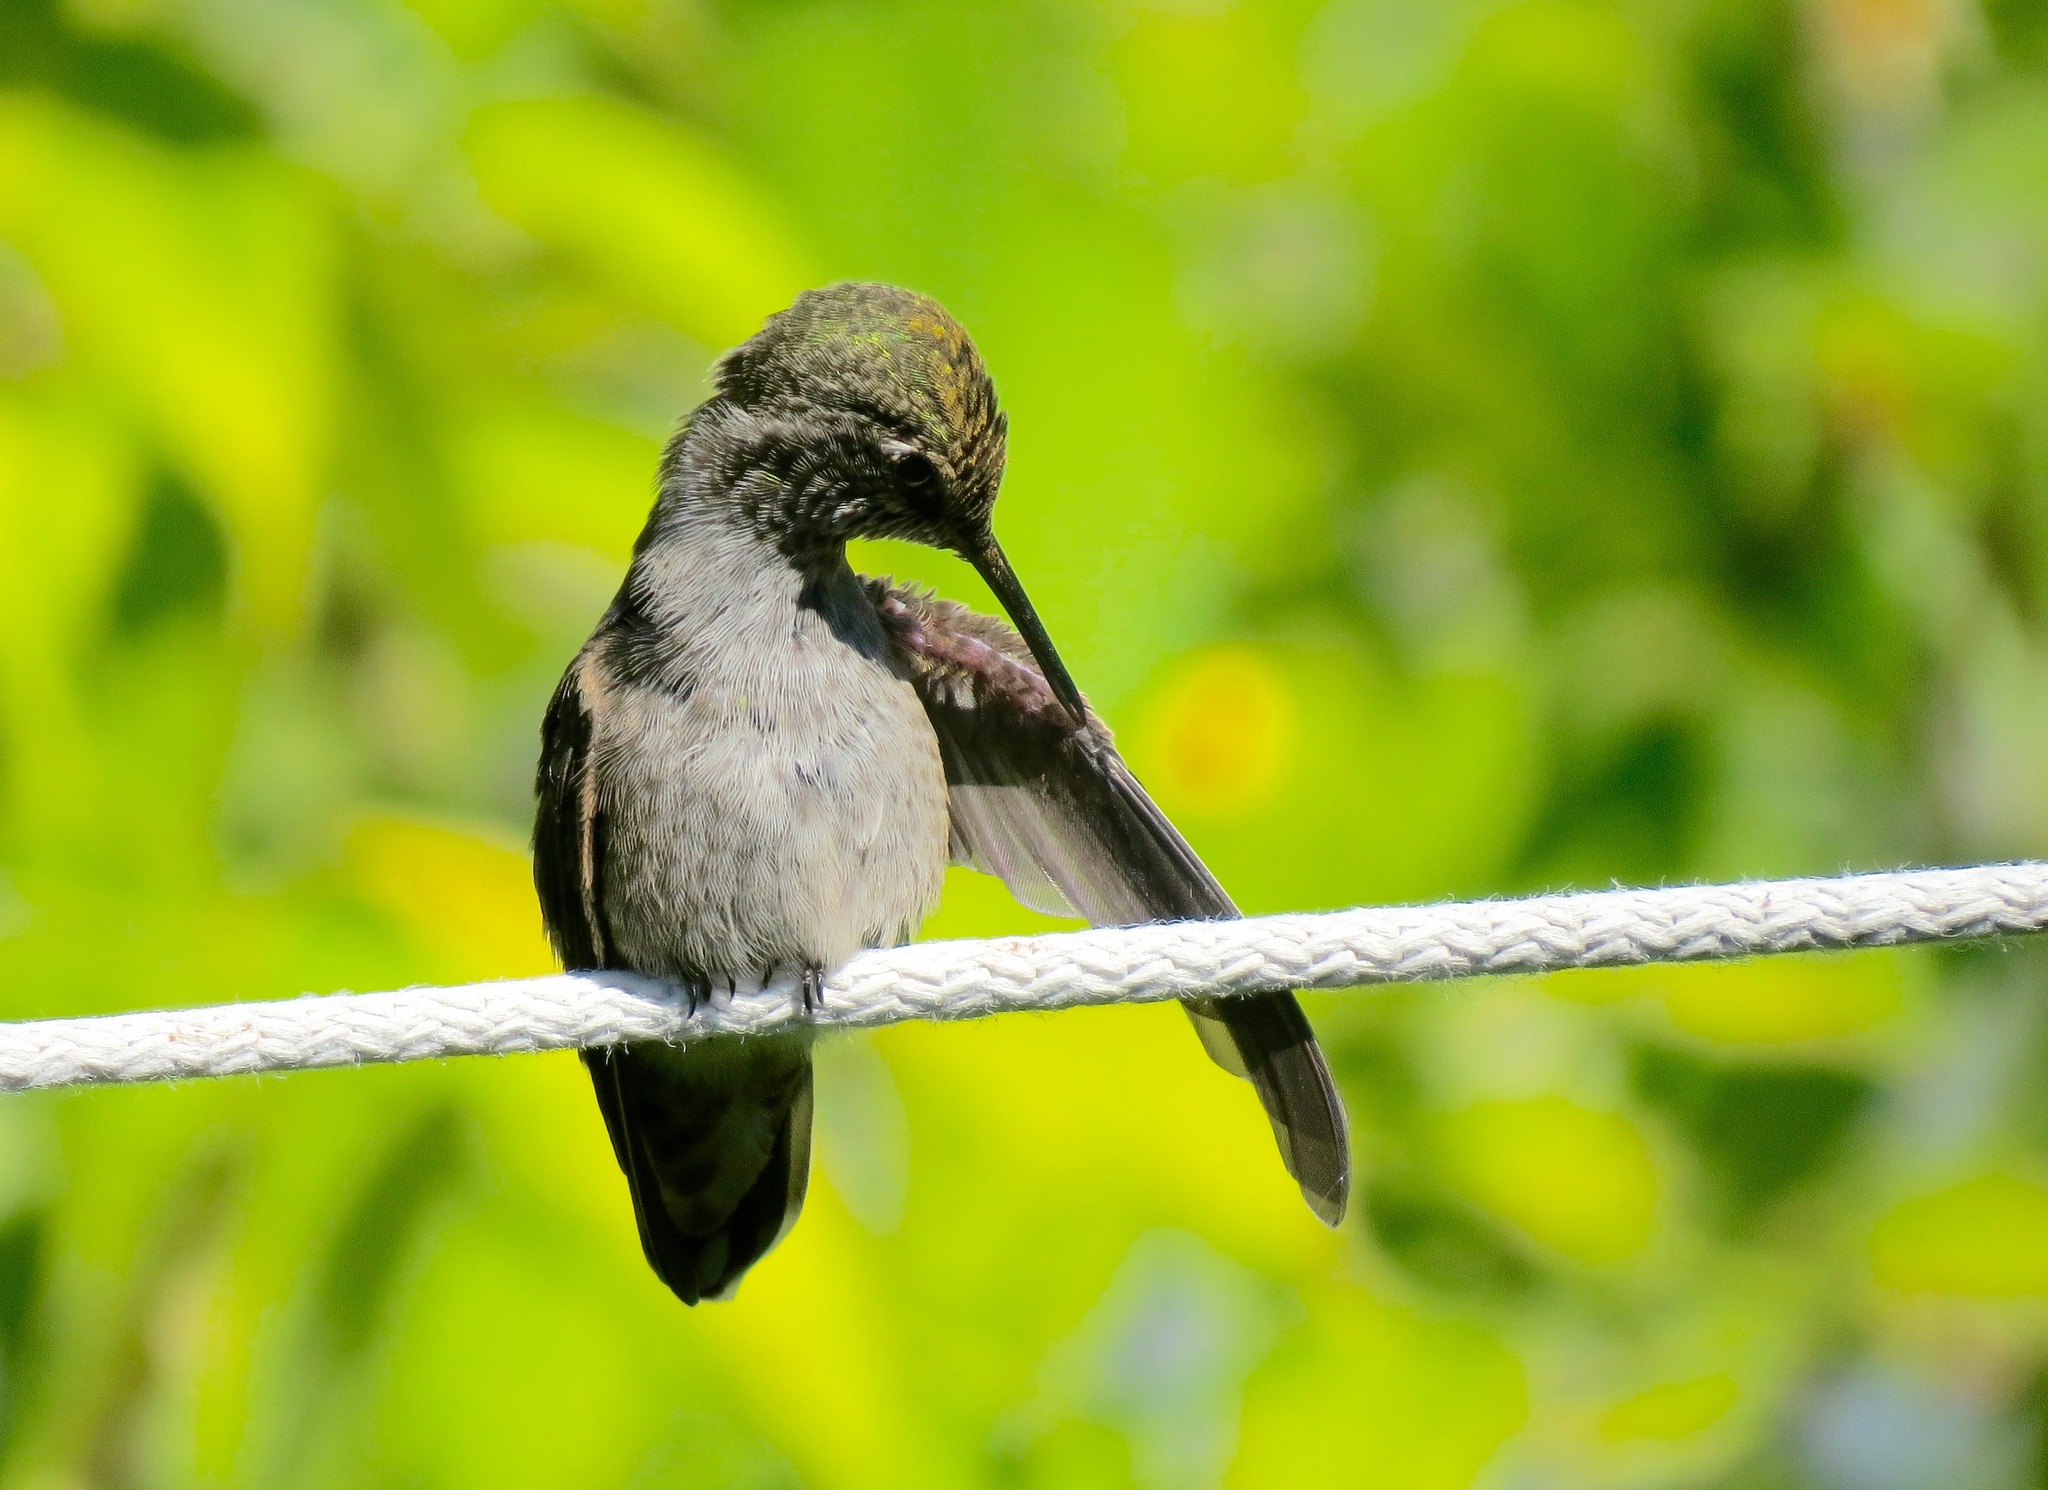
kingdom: Animalia
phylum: Chordata
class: Aves
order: Apodiformes
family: Trochilidae
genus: Calypte
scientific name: Calypte anna
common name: Anna's hummingbird
